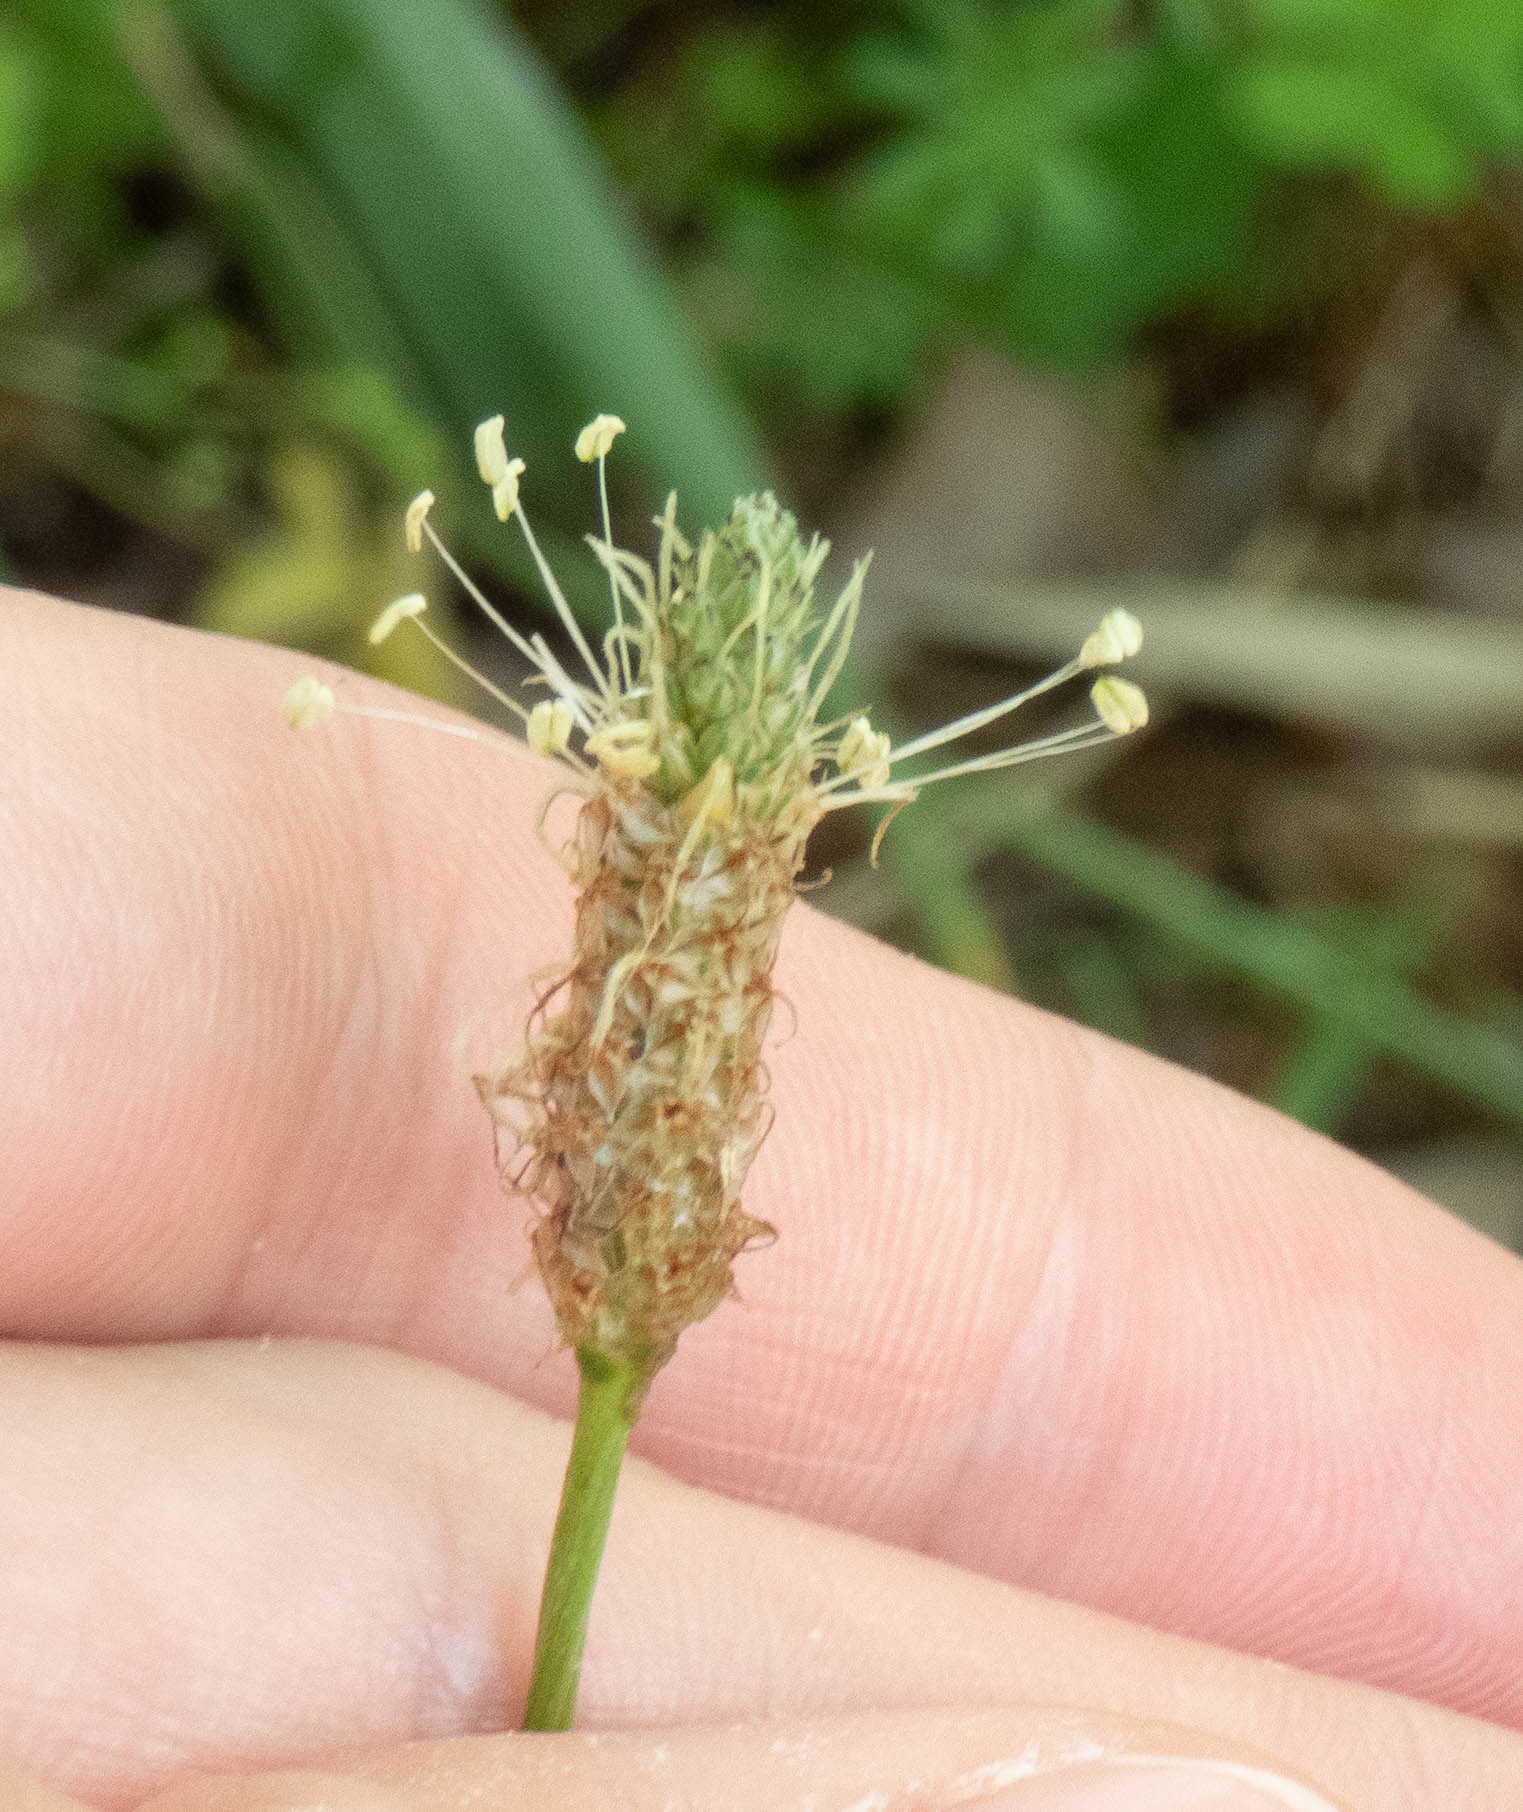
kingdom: Plantae
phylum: Tracheophyta
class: Magnoliopsida
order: Lamiales
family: Plantaginaceae
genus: Plantago
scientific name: Plantago lanceolata
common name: Ribwort plantain
